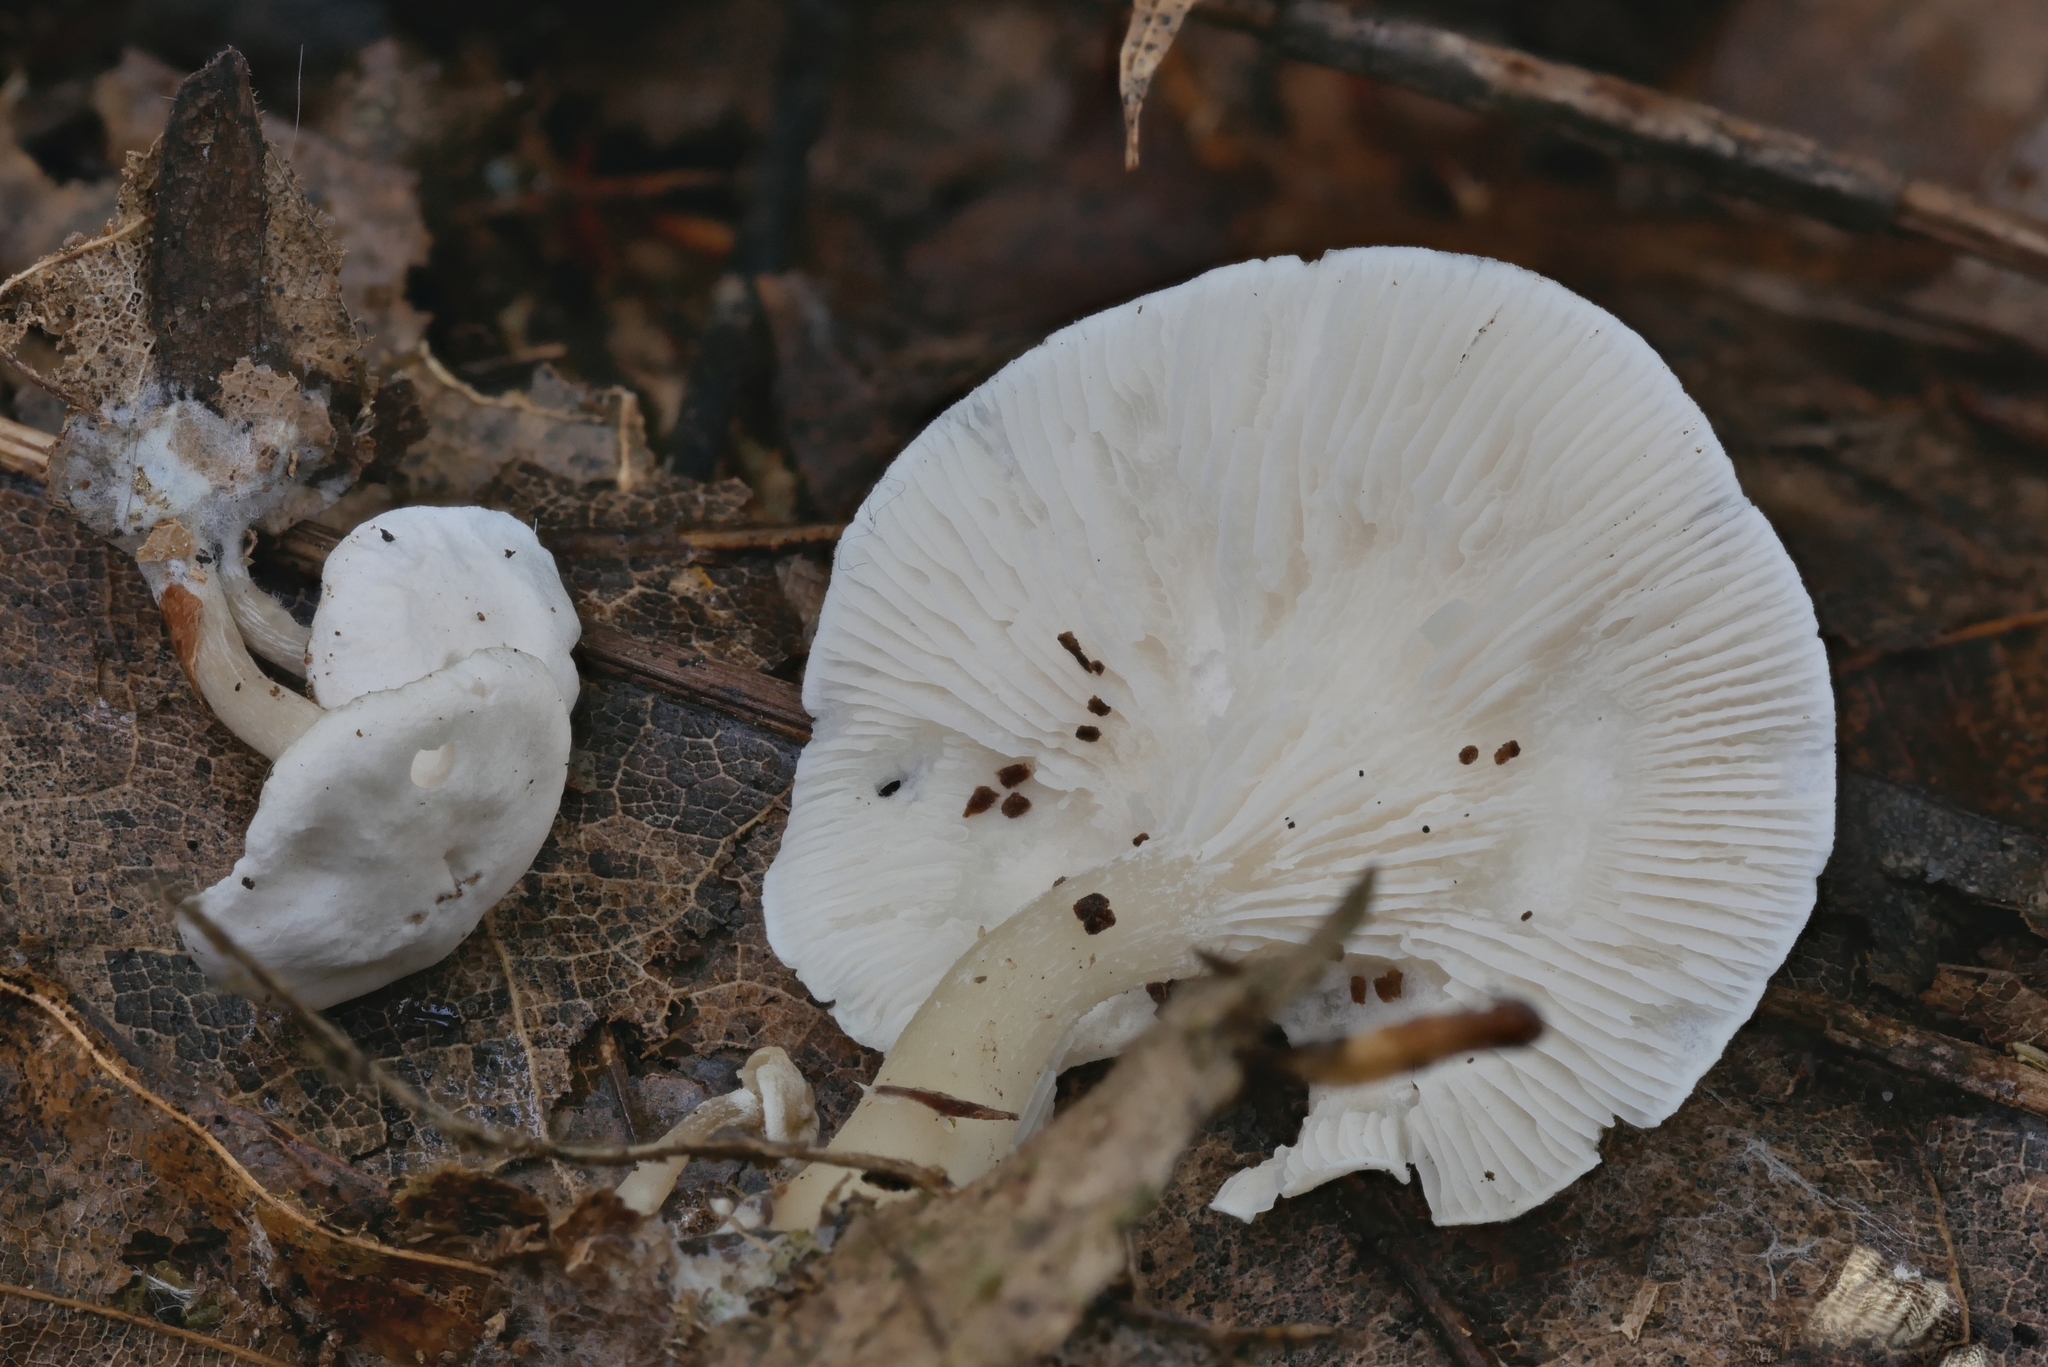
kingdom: Fungi
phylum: Basidiomycota
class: Agaricomycetes
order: Agaricales
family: Tricholomataceae
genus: Leucocybe
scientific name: Leucocybe candicans
